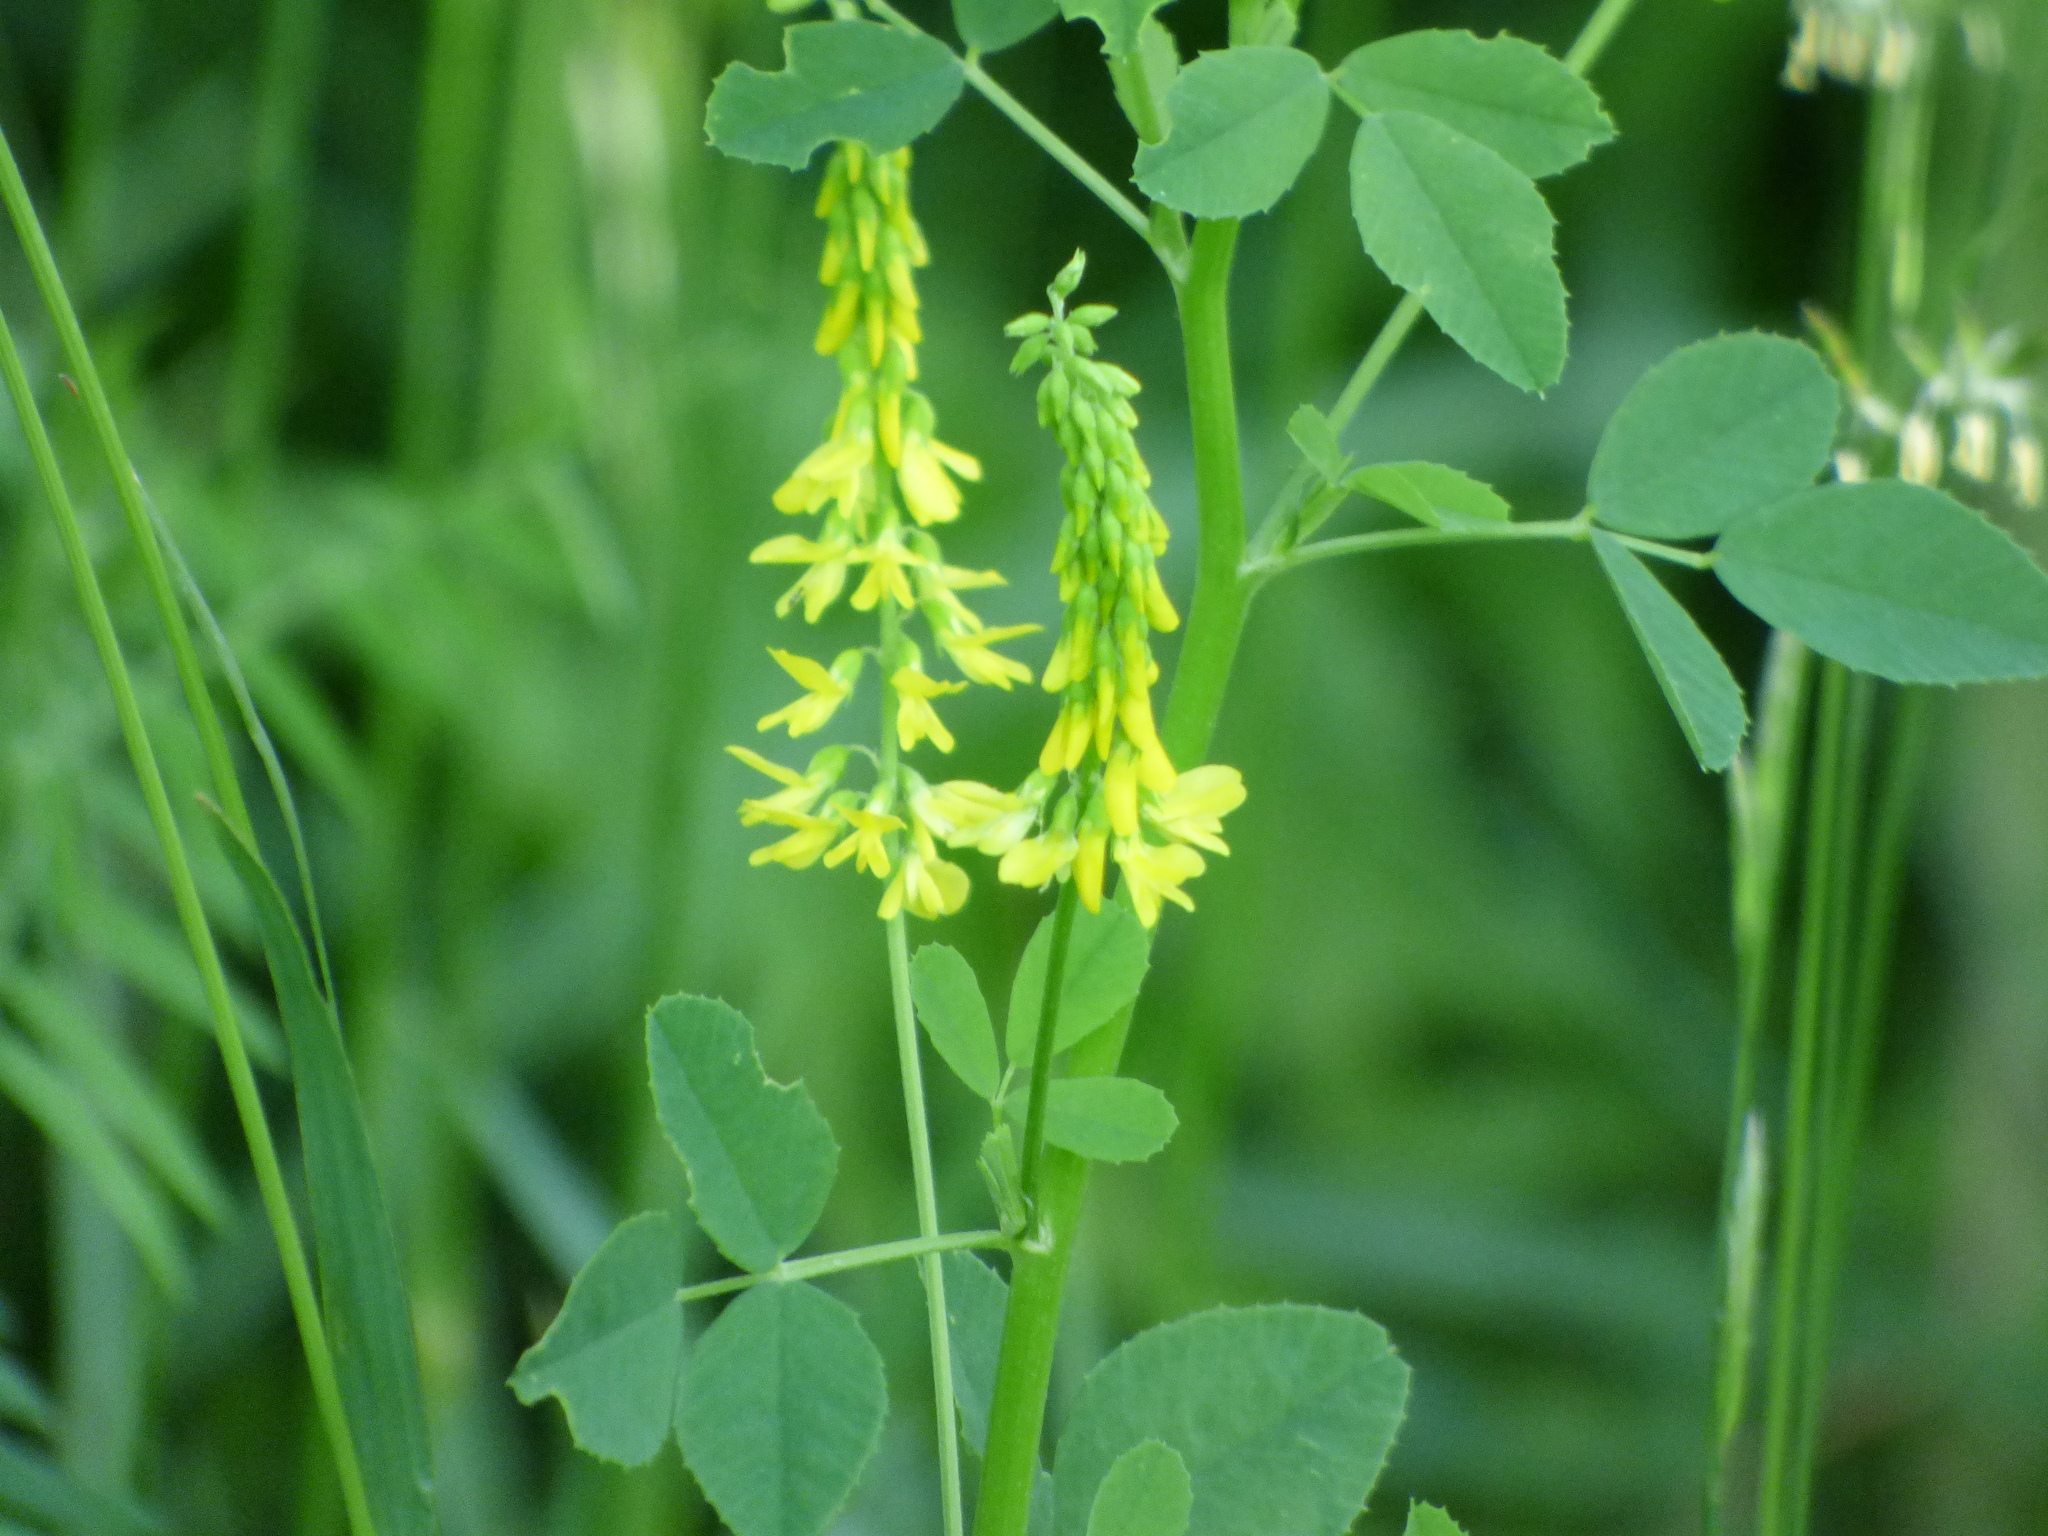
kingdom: Plantae
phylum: Tracheophyta
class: Magnoliopsida
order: Fabales
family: Fabaceae
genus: Melilotus
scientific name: Melilotus officinalis
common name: Sweetclover
